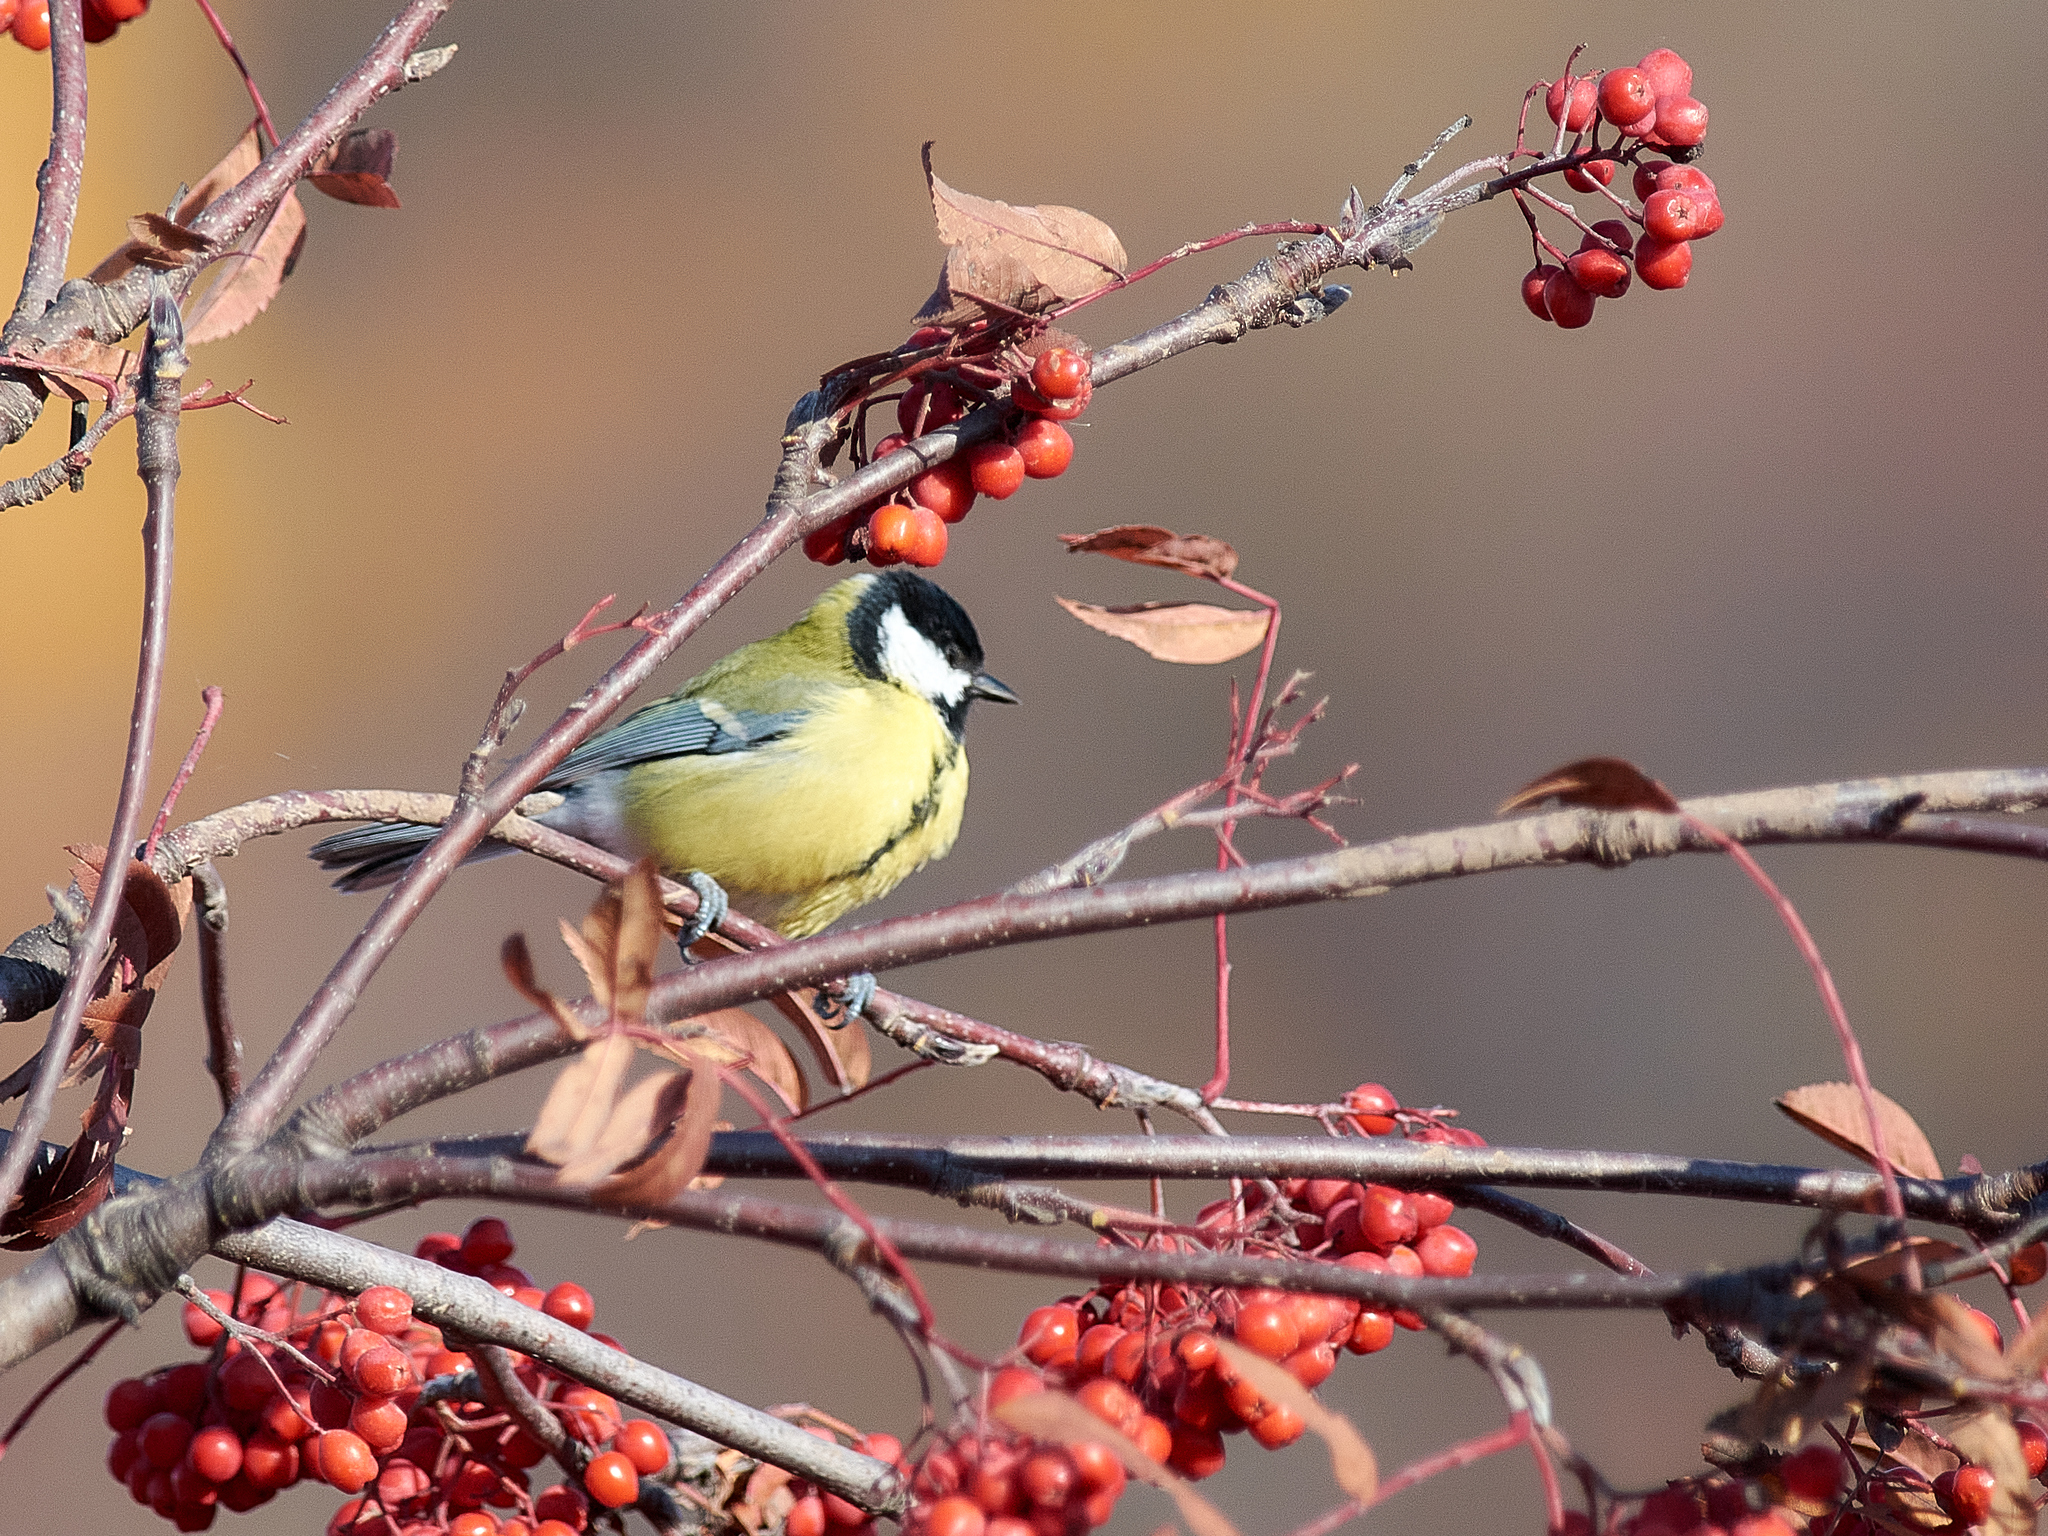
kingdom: Animalia
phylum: Chordata
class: Aves
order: Passeriformes
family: Paridae
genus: Parus
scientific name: Parus major
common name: Great tit
